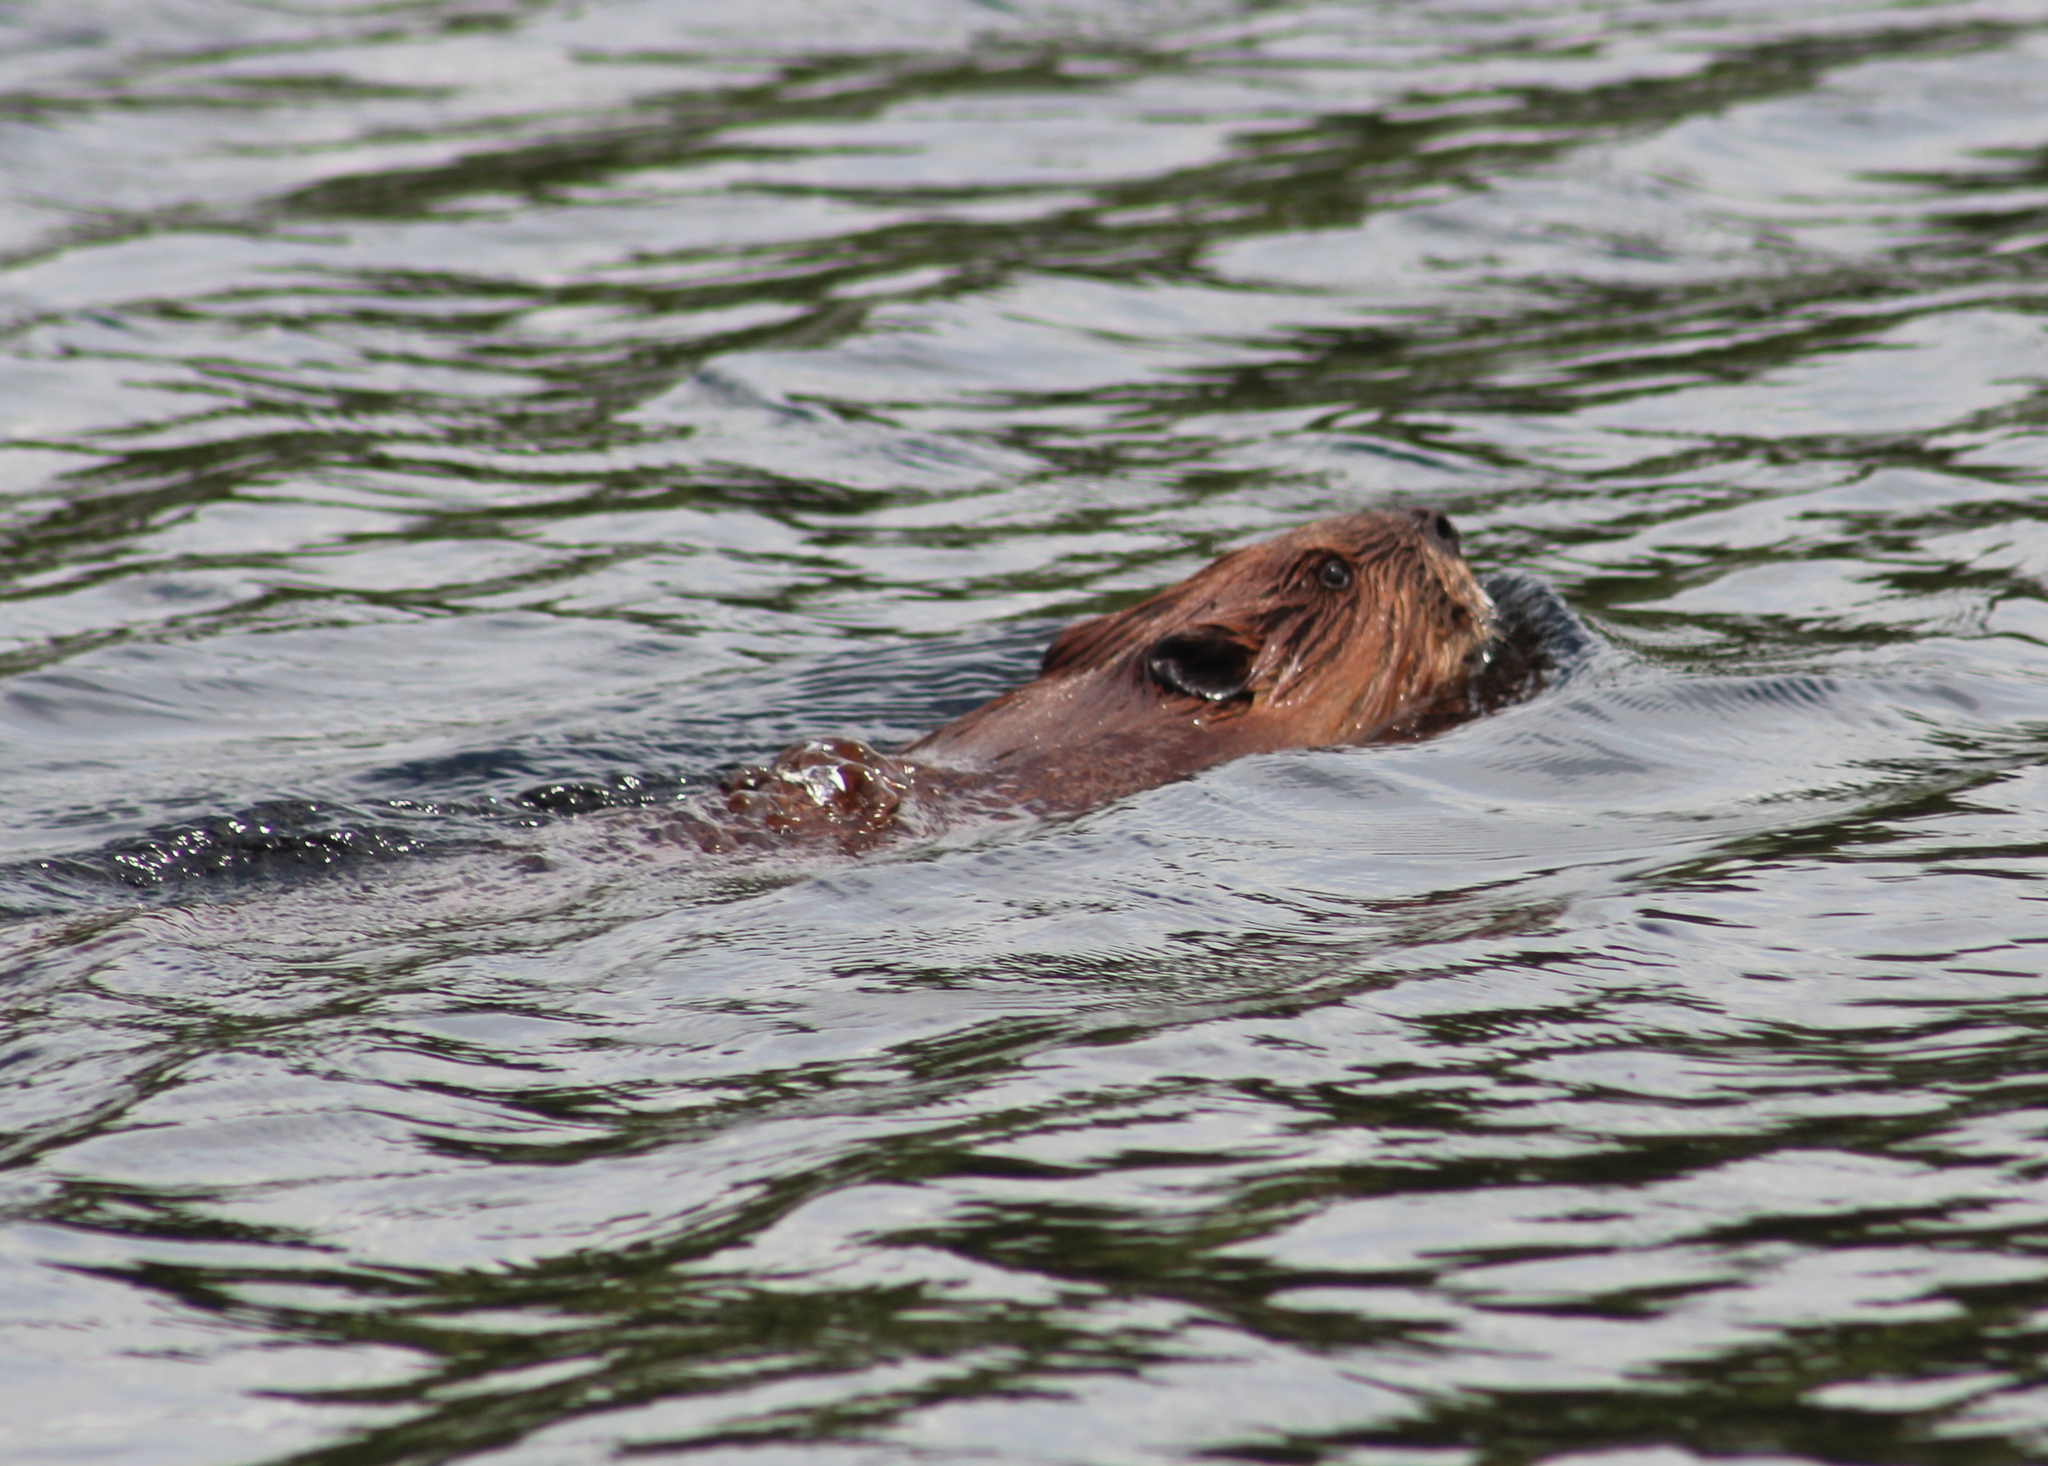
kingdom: Animalia
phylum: Chordata
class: Mammalia
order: Rodentia
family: Castoridae
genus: Castor
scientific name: Castor canadensis
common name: American beaver
